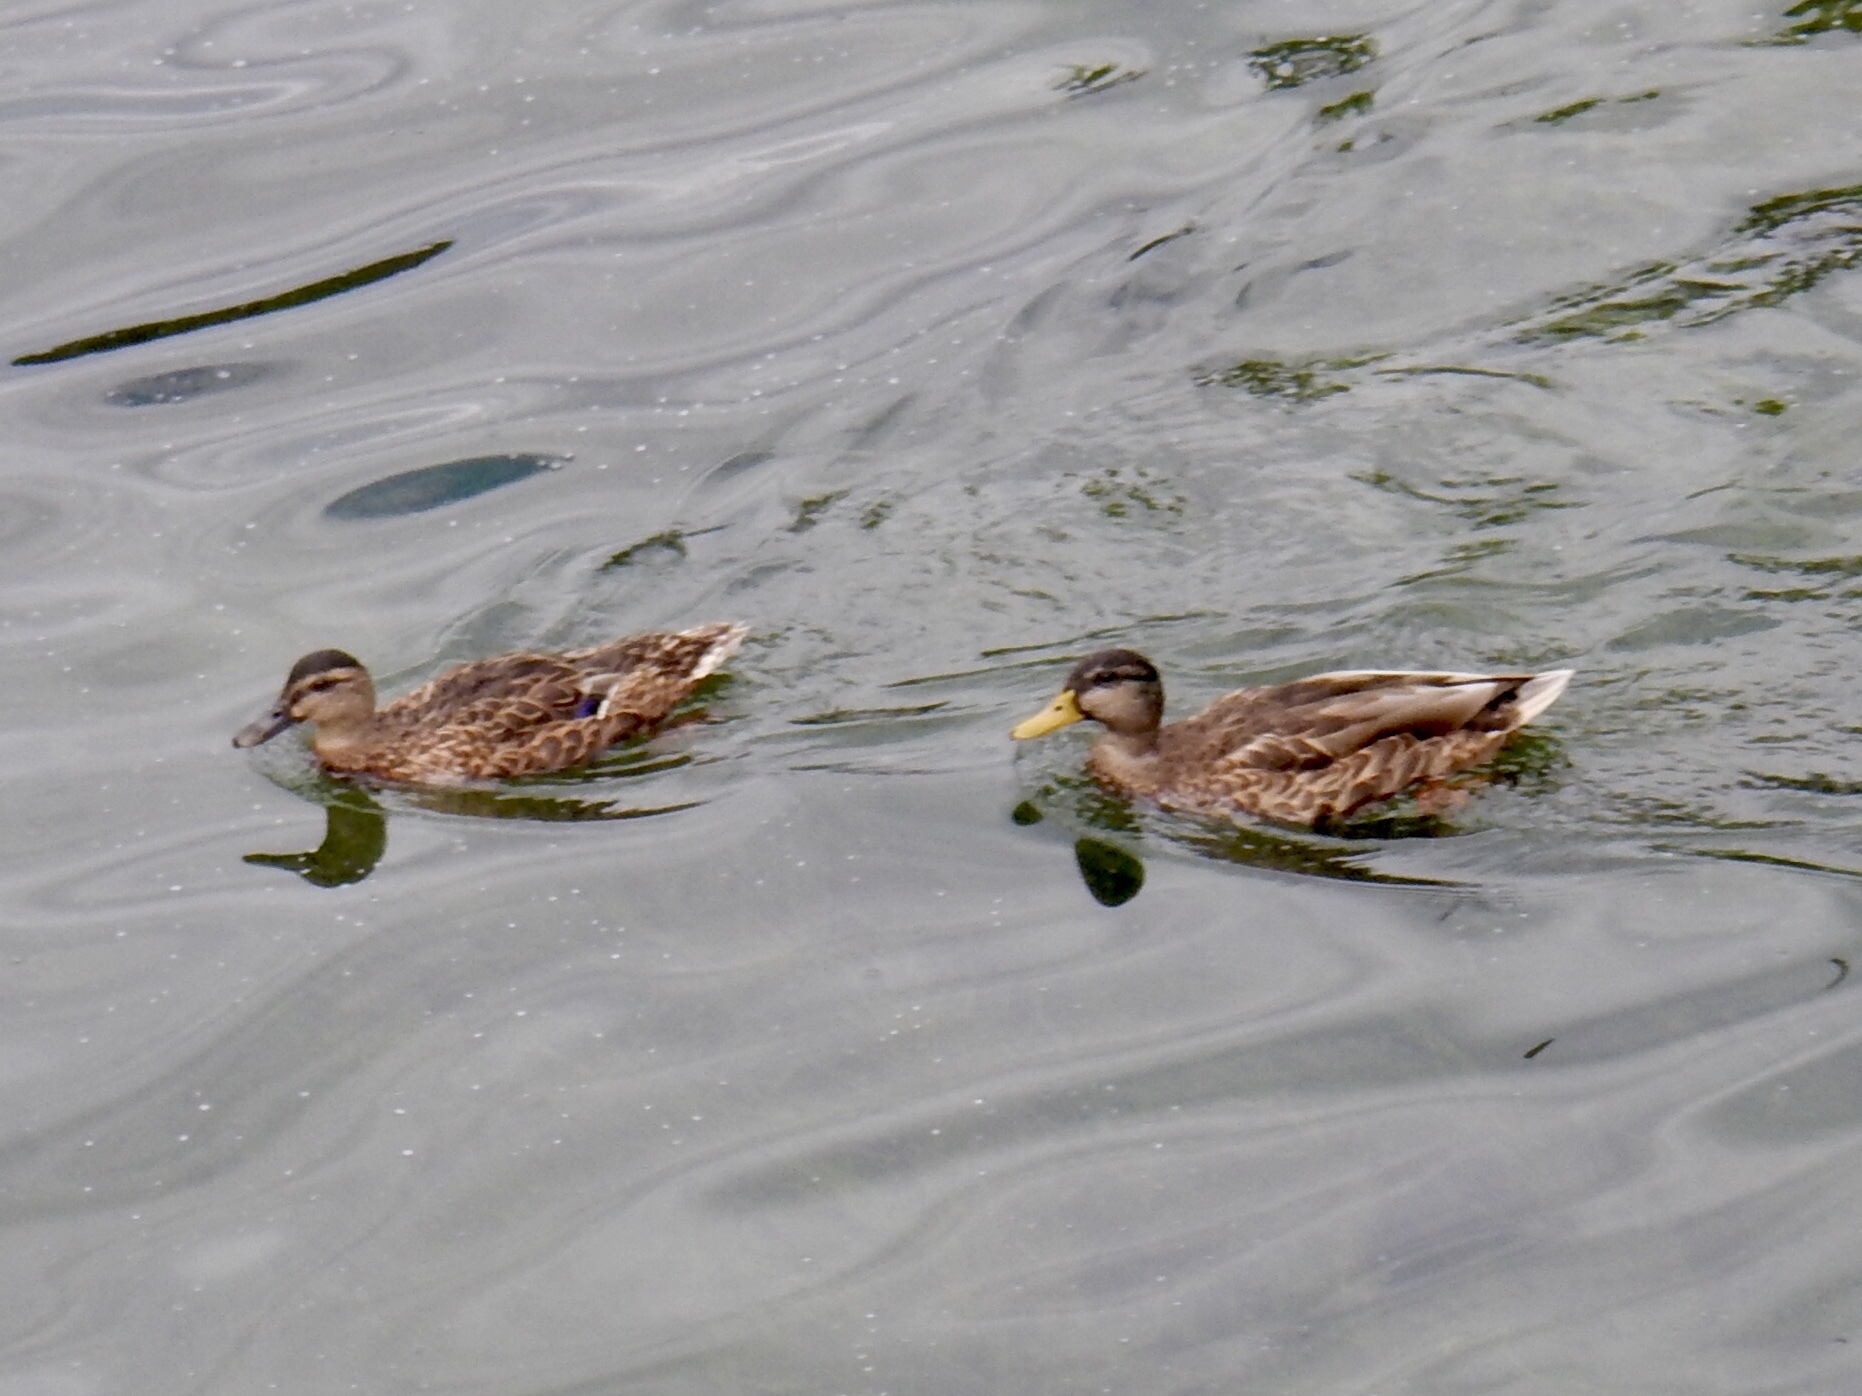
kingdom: Animalia
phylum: Chordata
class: Aves
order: Anseriformes
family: Anatidae
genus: Anas
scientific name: Anas platyrhynchos
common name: Mallard
